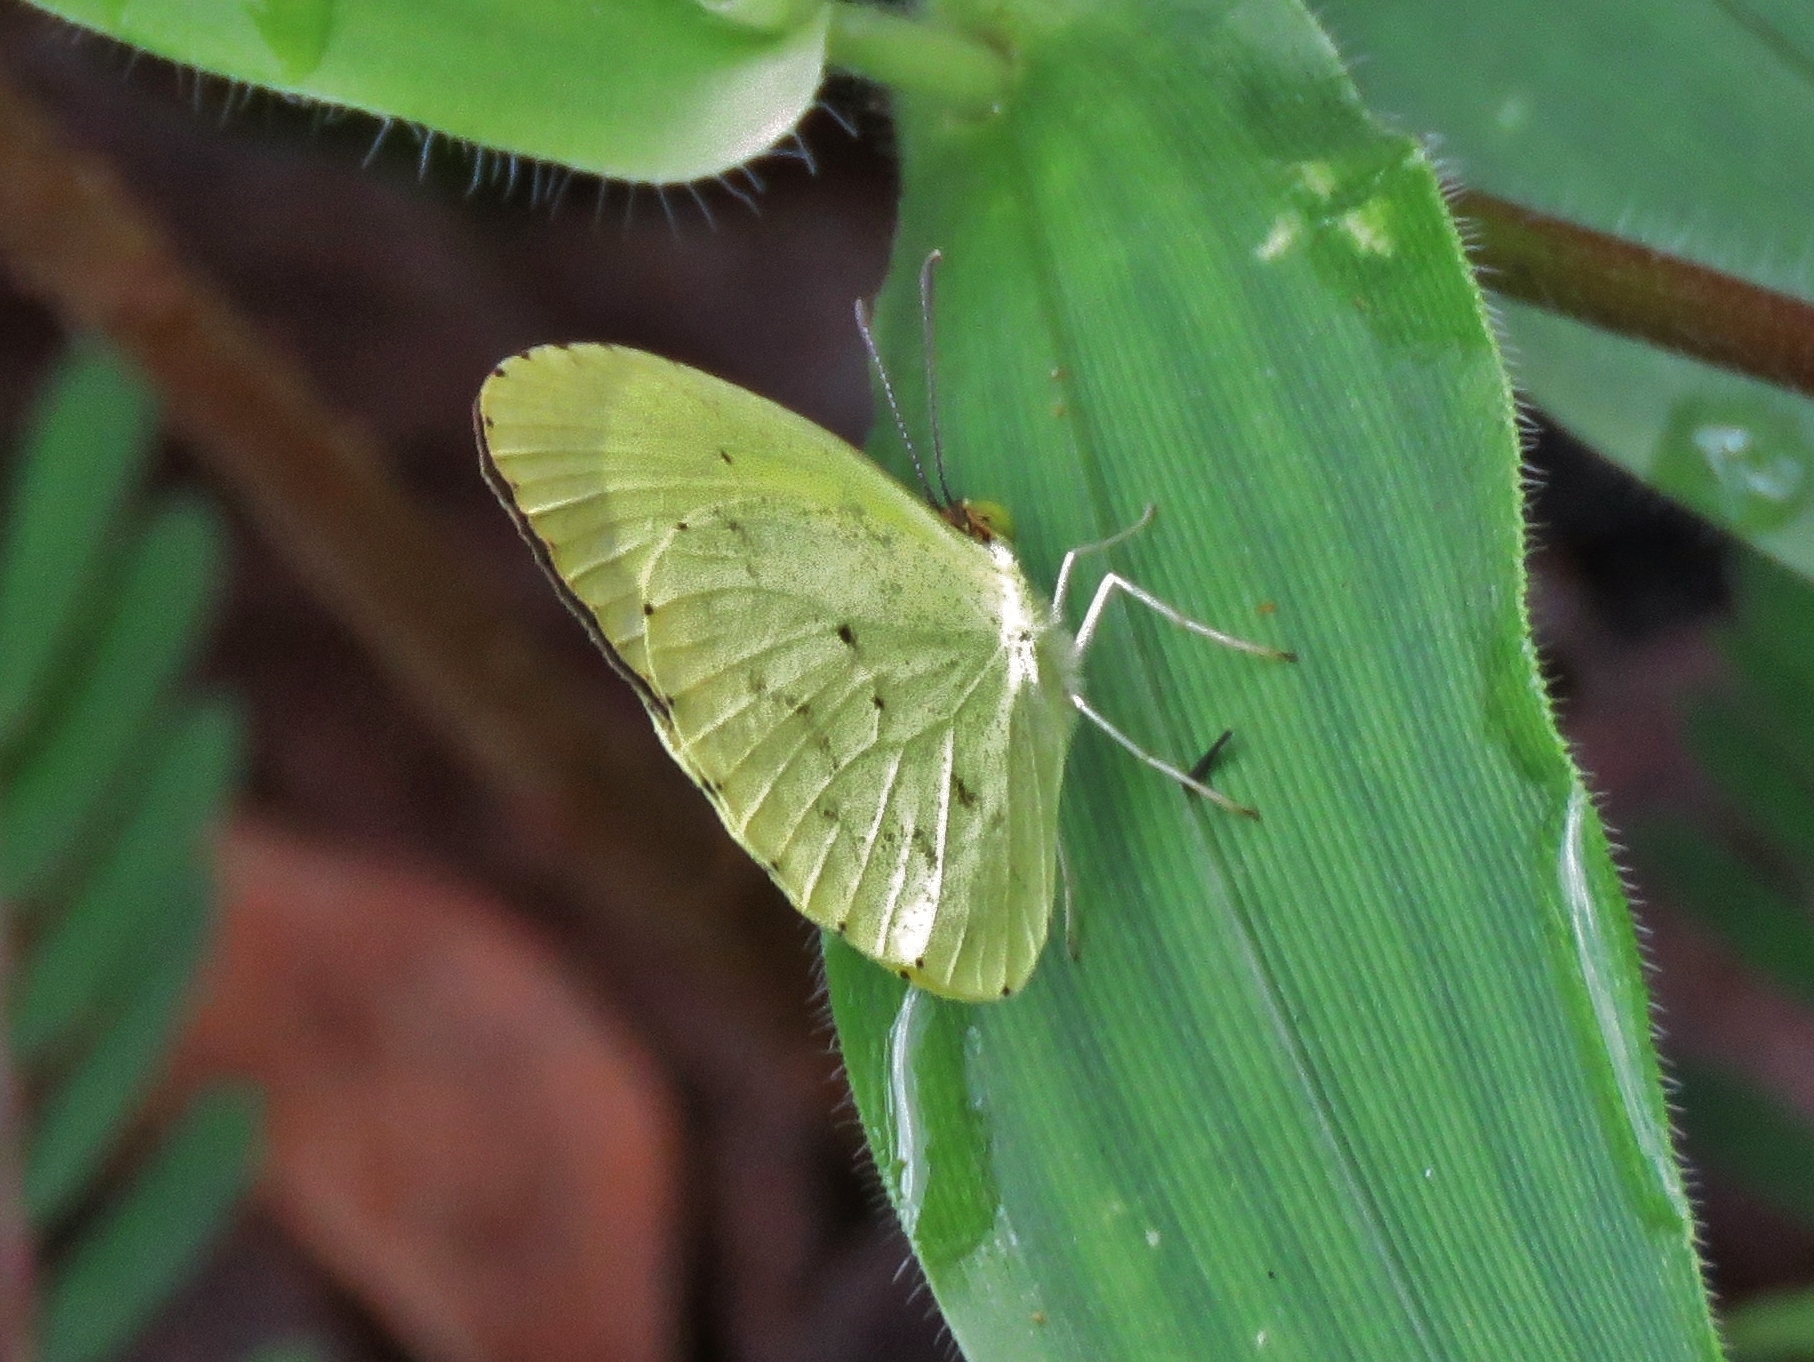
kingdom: Animalia
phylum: Arthropoda
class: Insecta
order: Lepidoptera
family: Pieridae
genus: Eurema
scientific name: Eurema daira
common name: Barred sulphur
